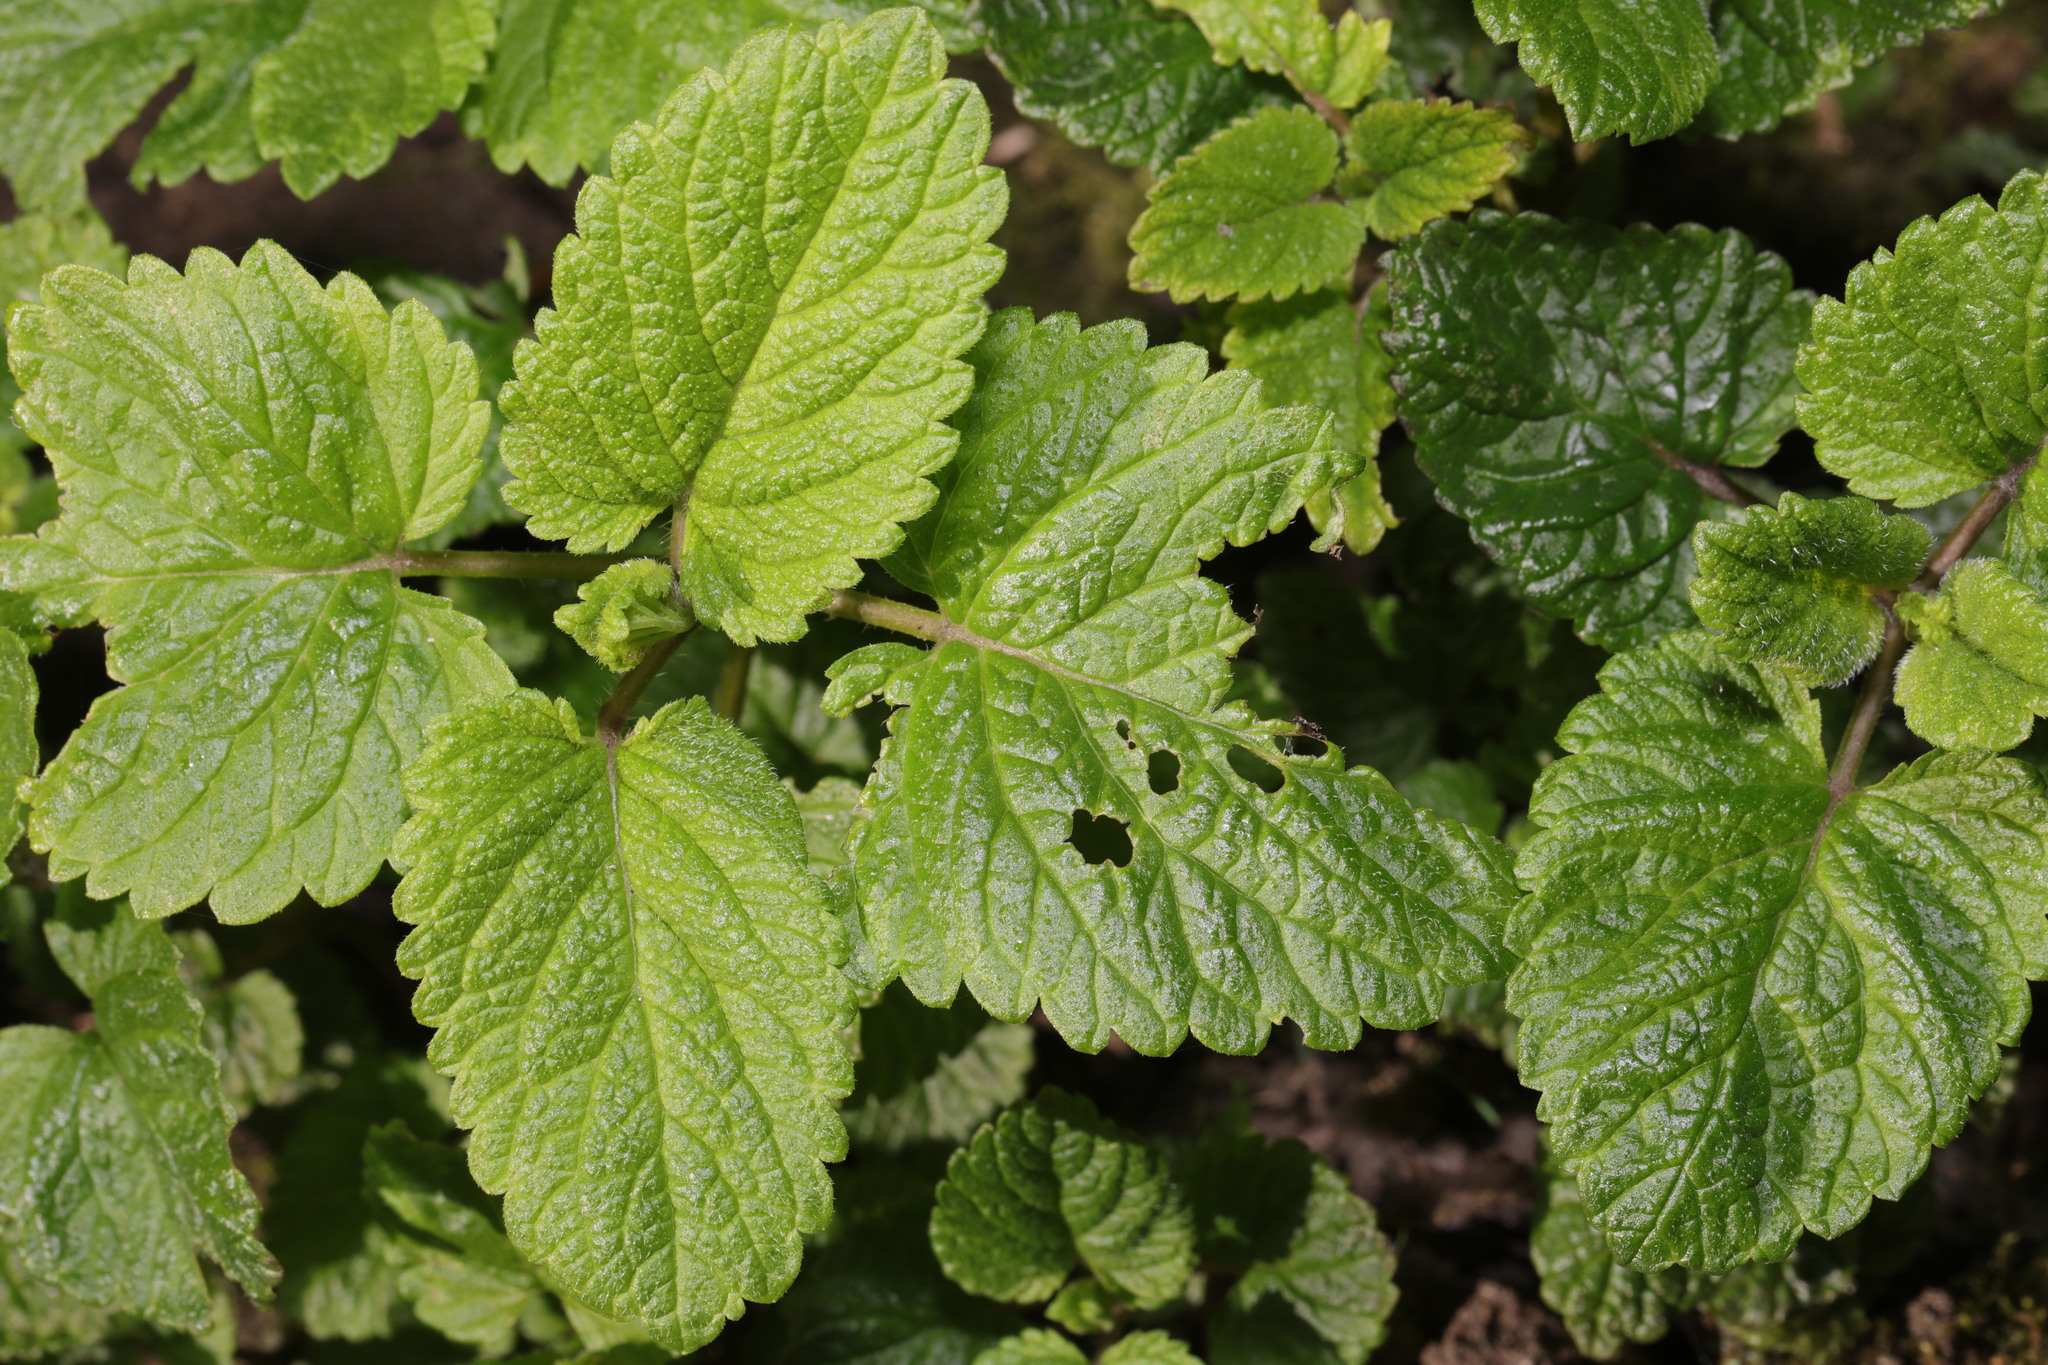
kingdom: Plantae
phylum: Tracheophyta
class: Magnoliopsida
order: Lamiales
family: Lamiaceae
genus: Melissa
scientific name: Melissa officinalis
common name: Balm
